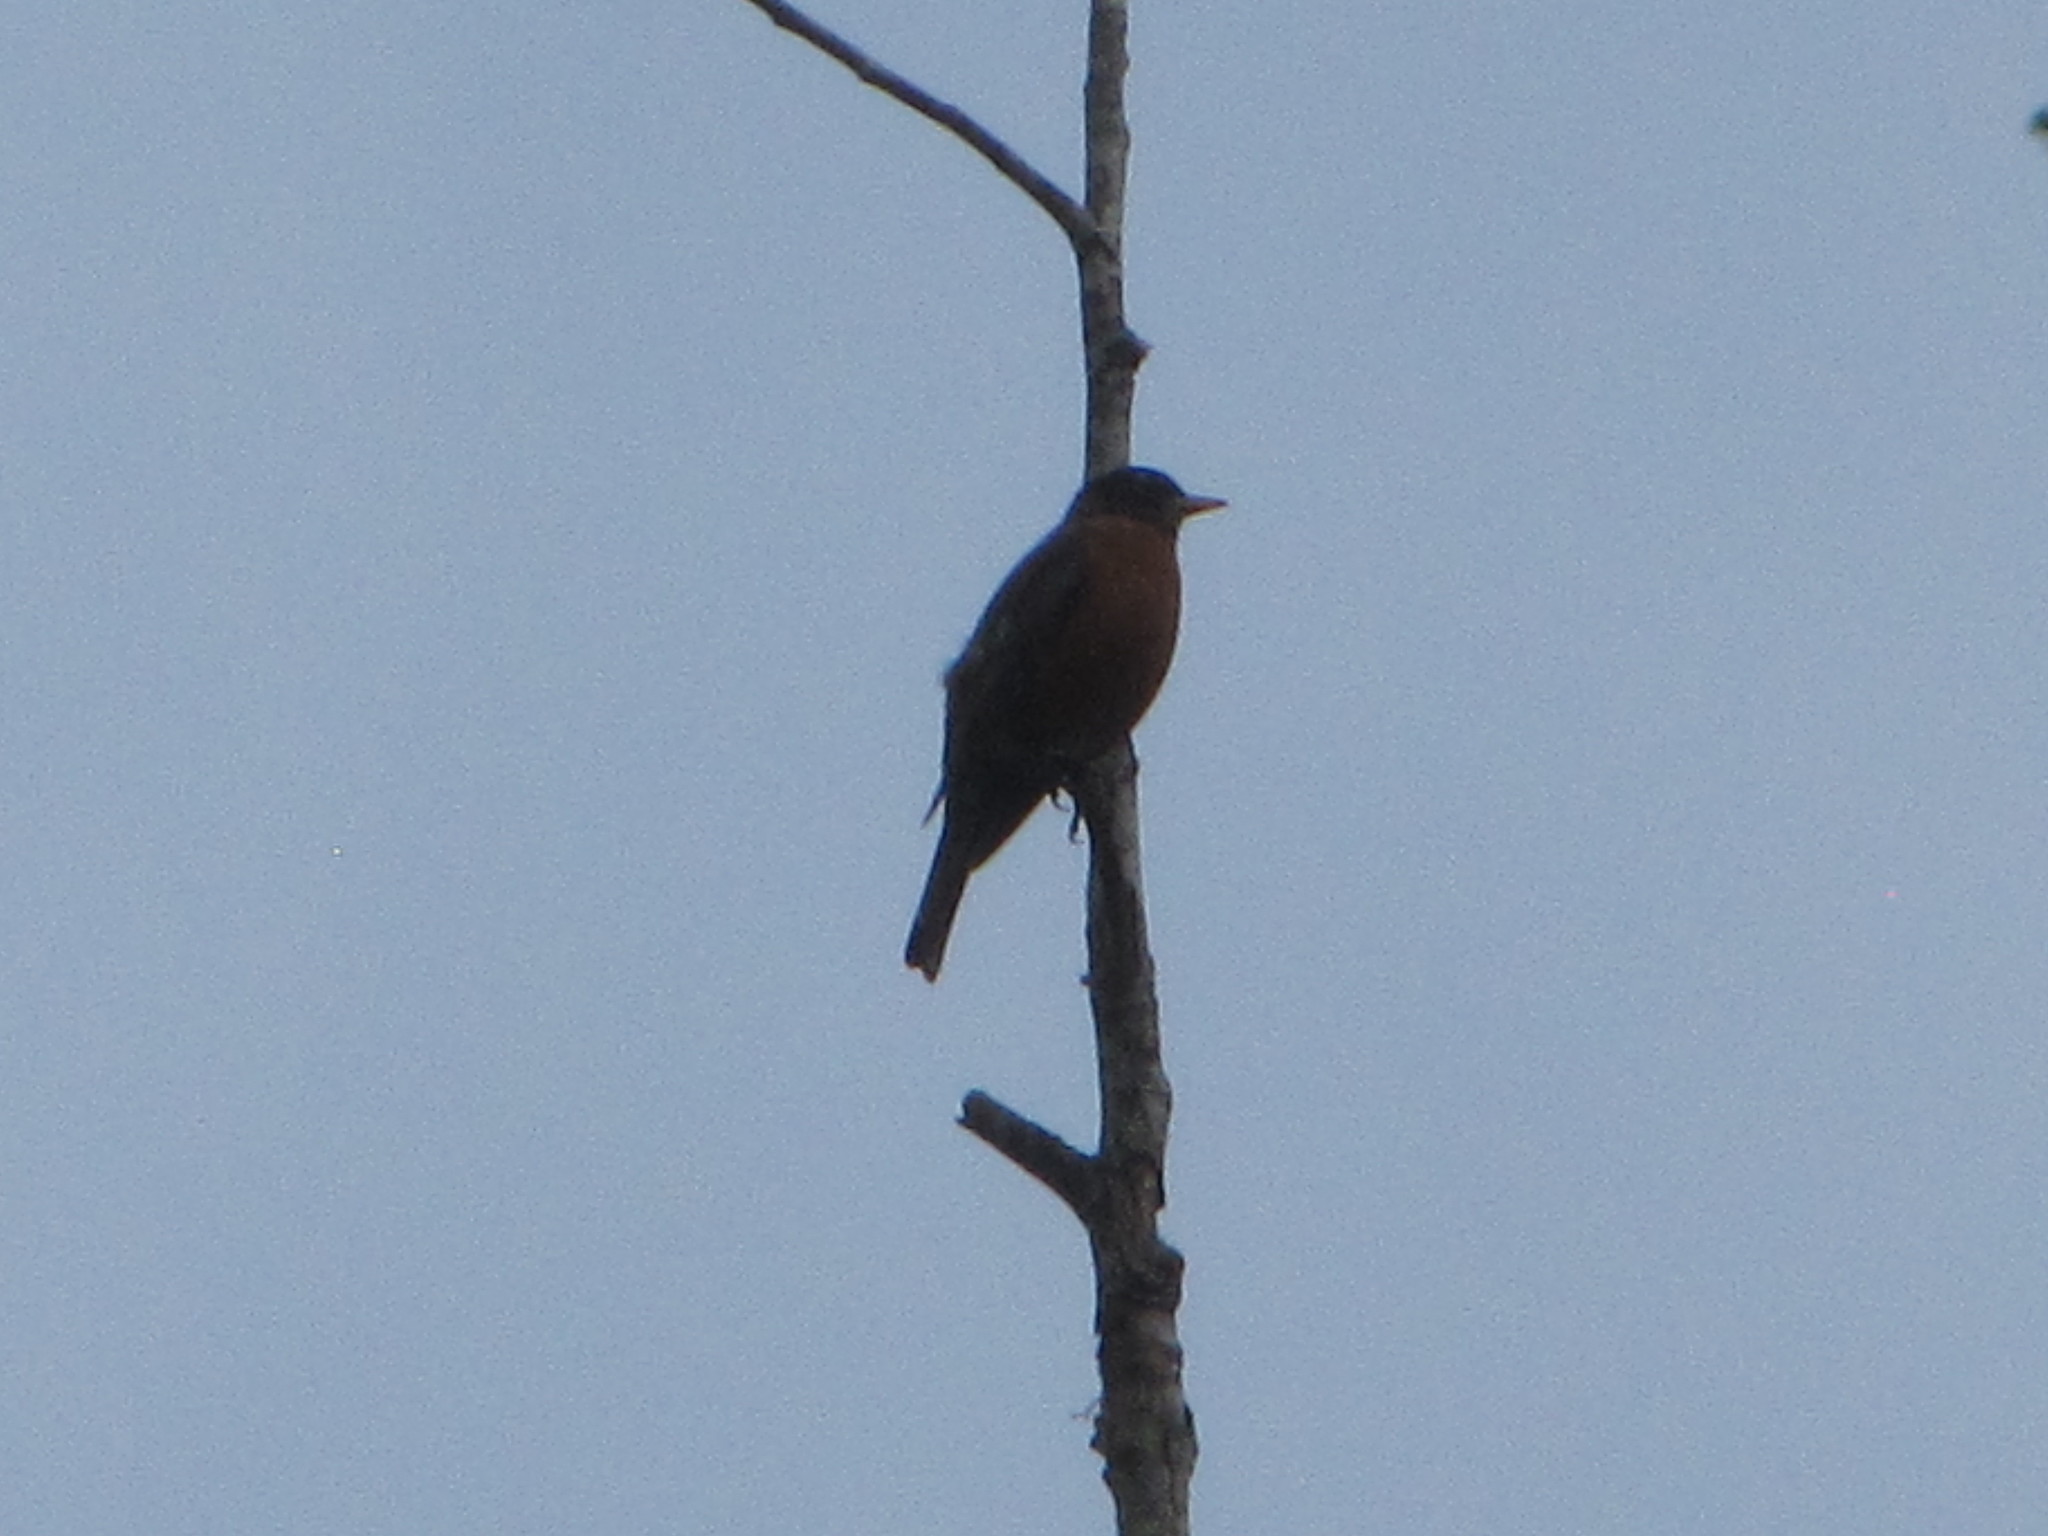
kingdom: Animalia
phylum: Chordata
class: Aves
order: Passeriformes
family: Turdidae
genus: Turdus
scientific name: Turdus migratorius
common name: American robin
